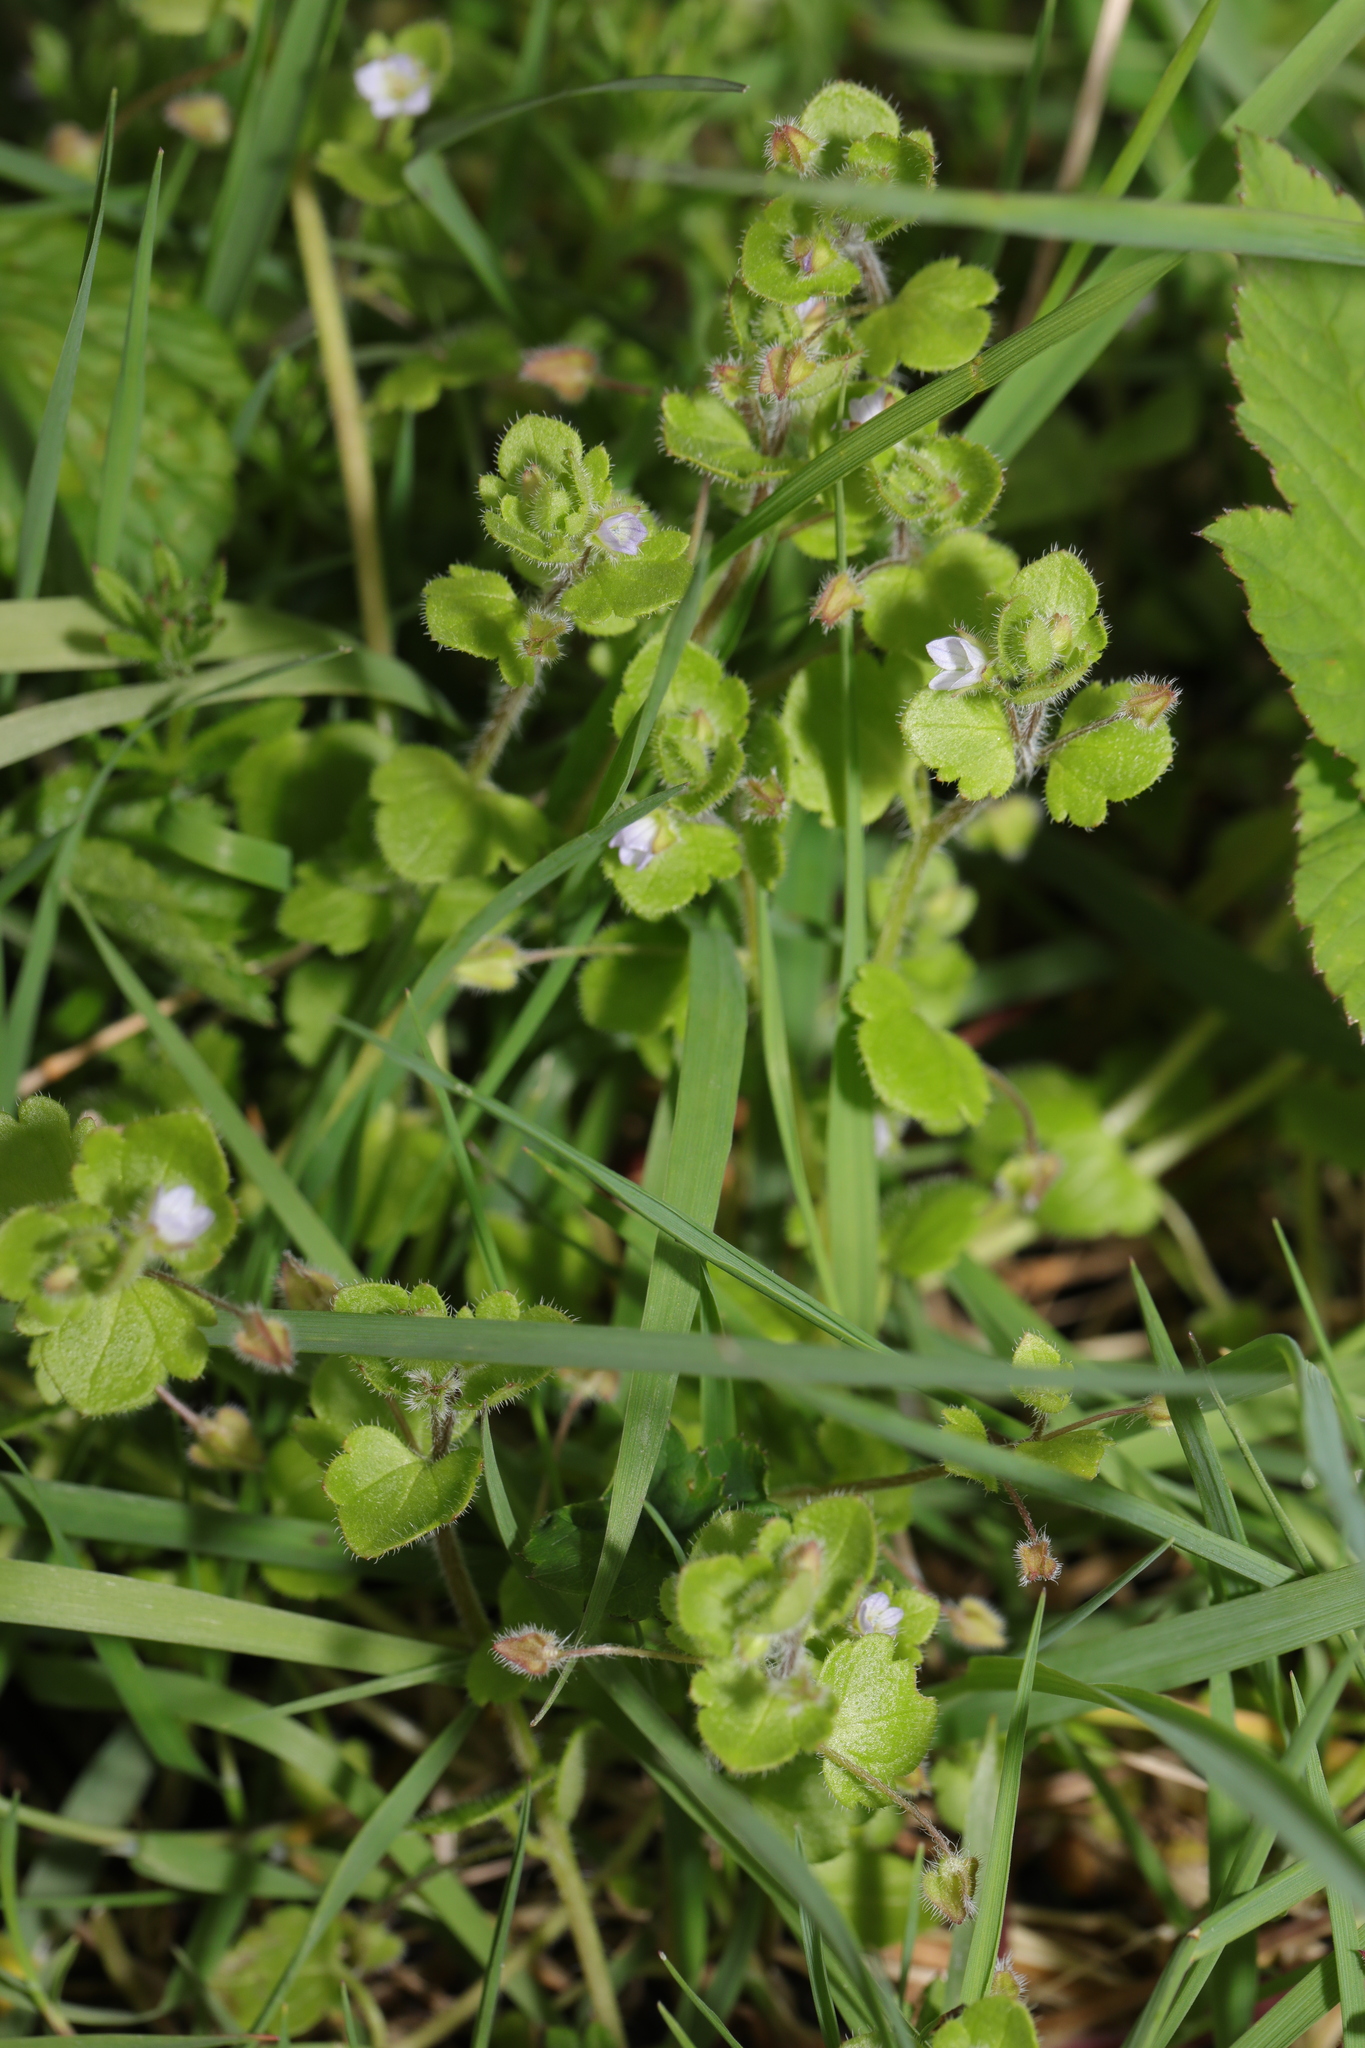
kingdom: Plantae
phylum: Tracheophyta
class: Magnoliopsida
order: Lamiales
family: Plantaginaceae
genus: Veronica
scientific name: Veronica sublobata
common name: False ivy-leaved speedwell
